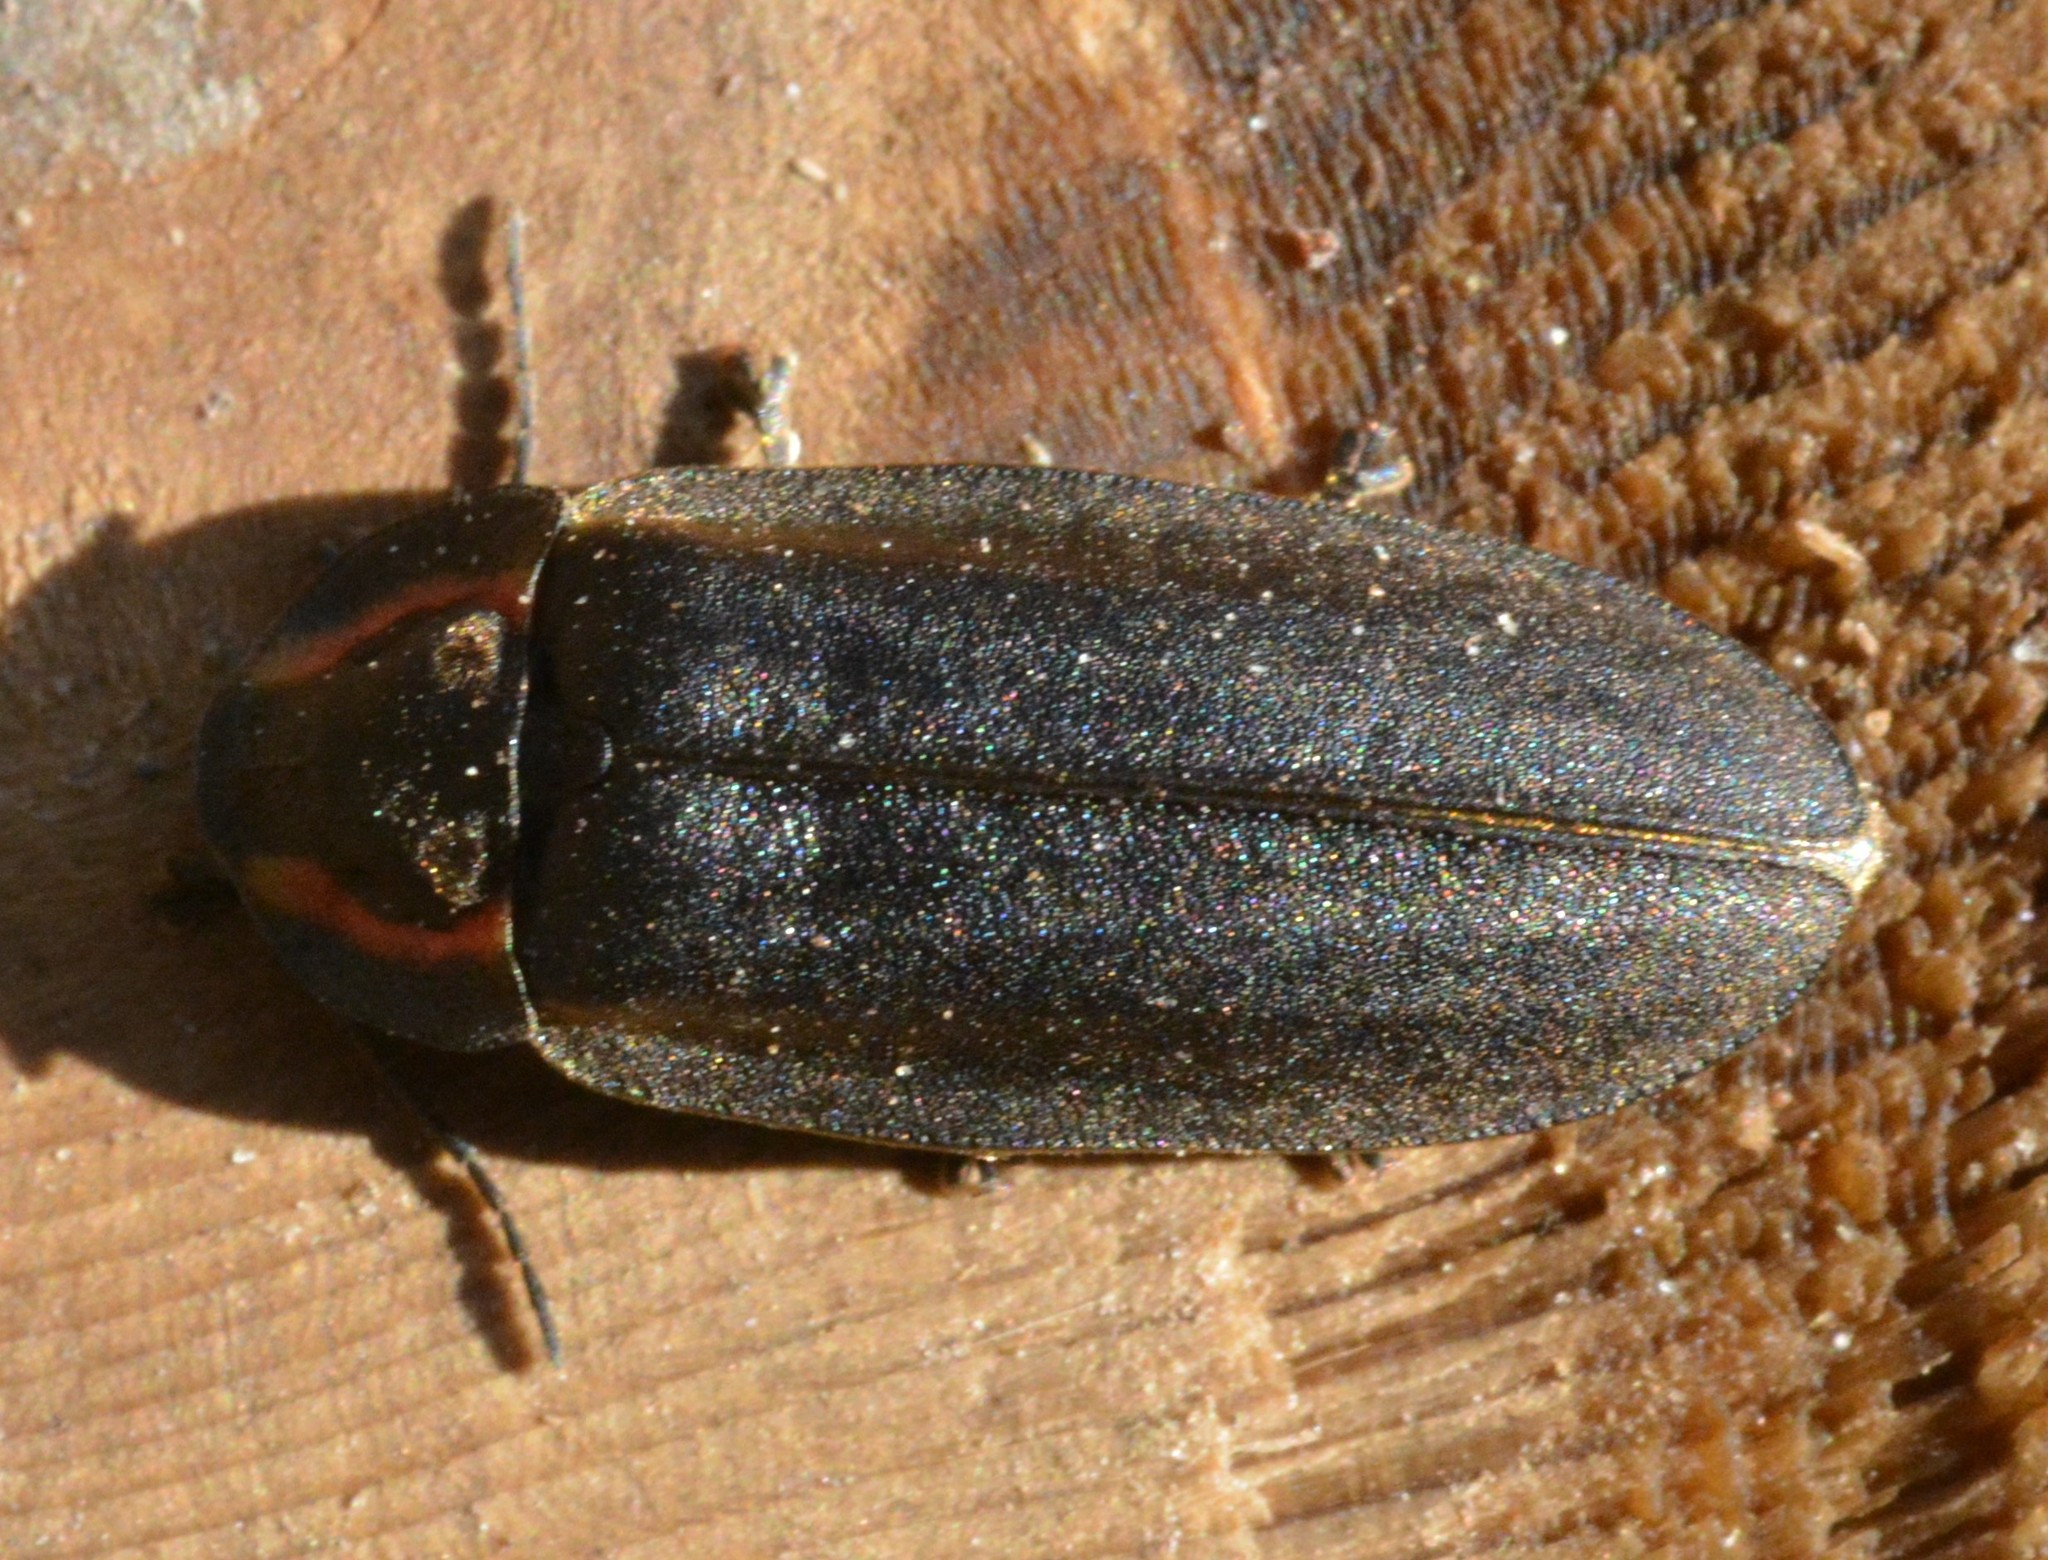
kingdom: Animalia
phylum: Arthropoda
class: Insecta
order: Coleoptera
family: Lampyridae
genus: Photinus
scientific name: Photinus corrusca
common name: Winter firefly
